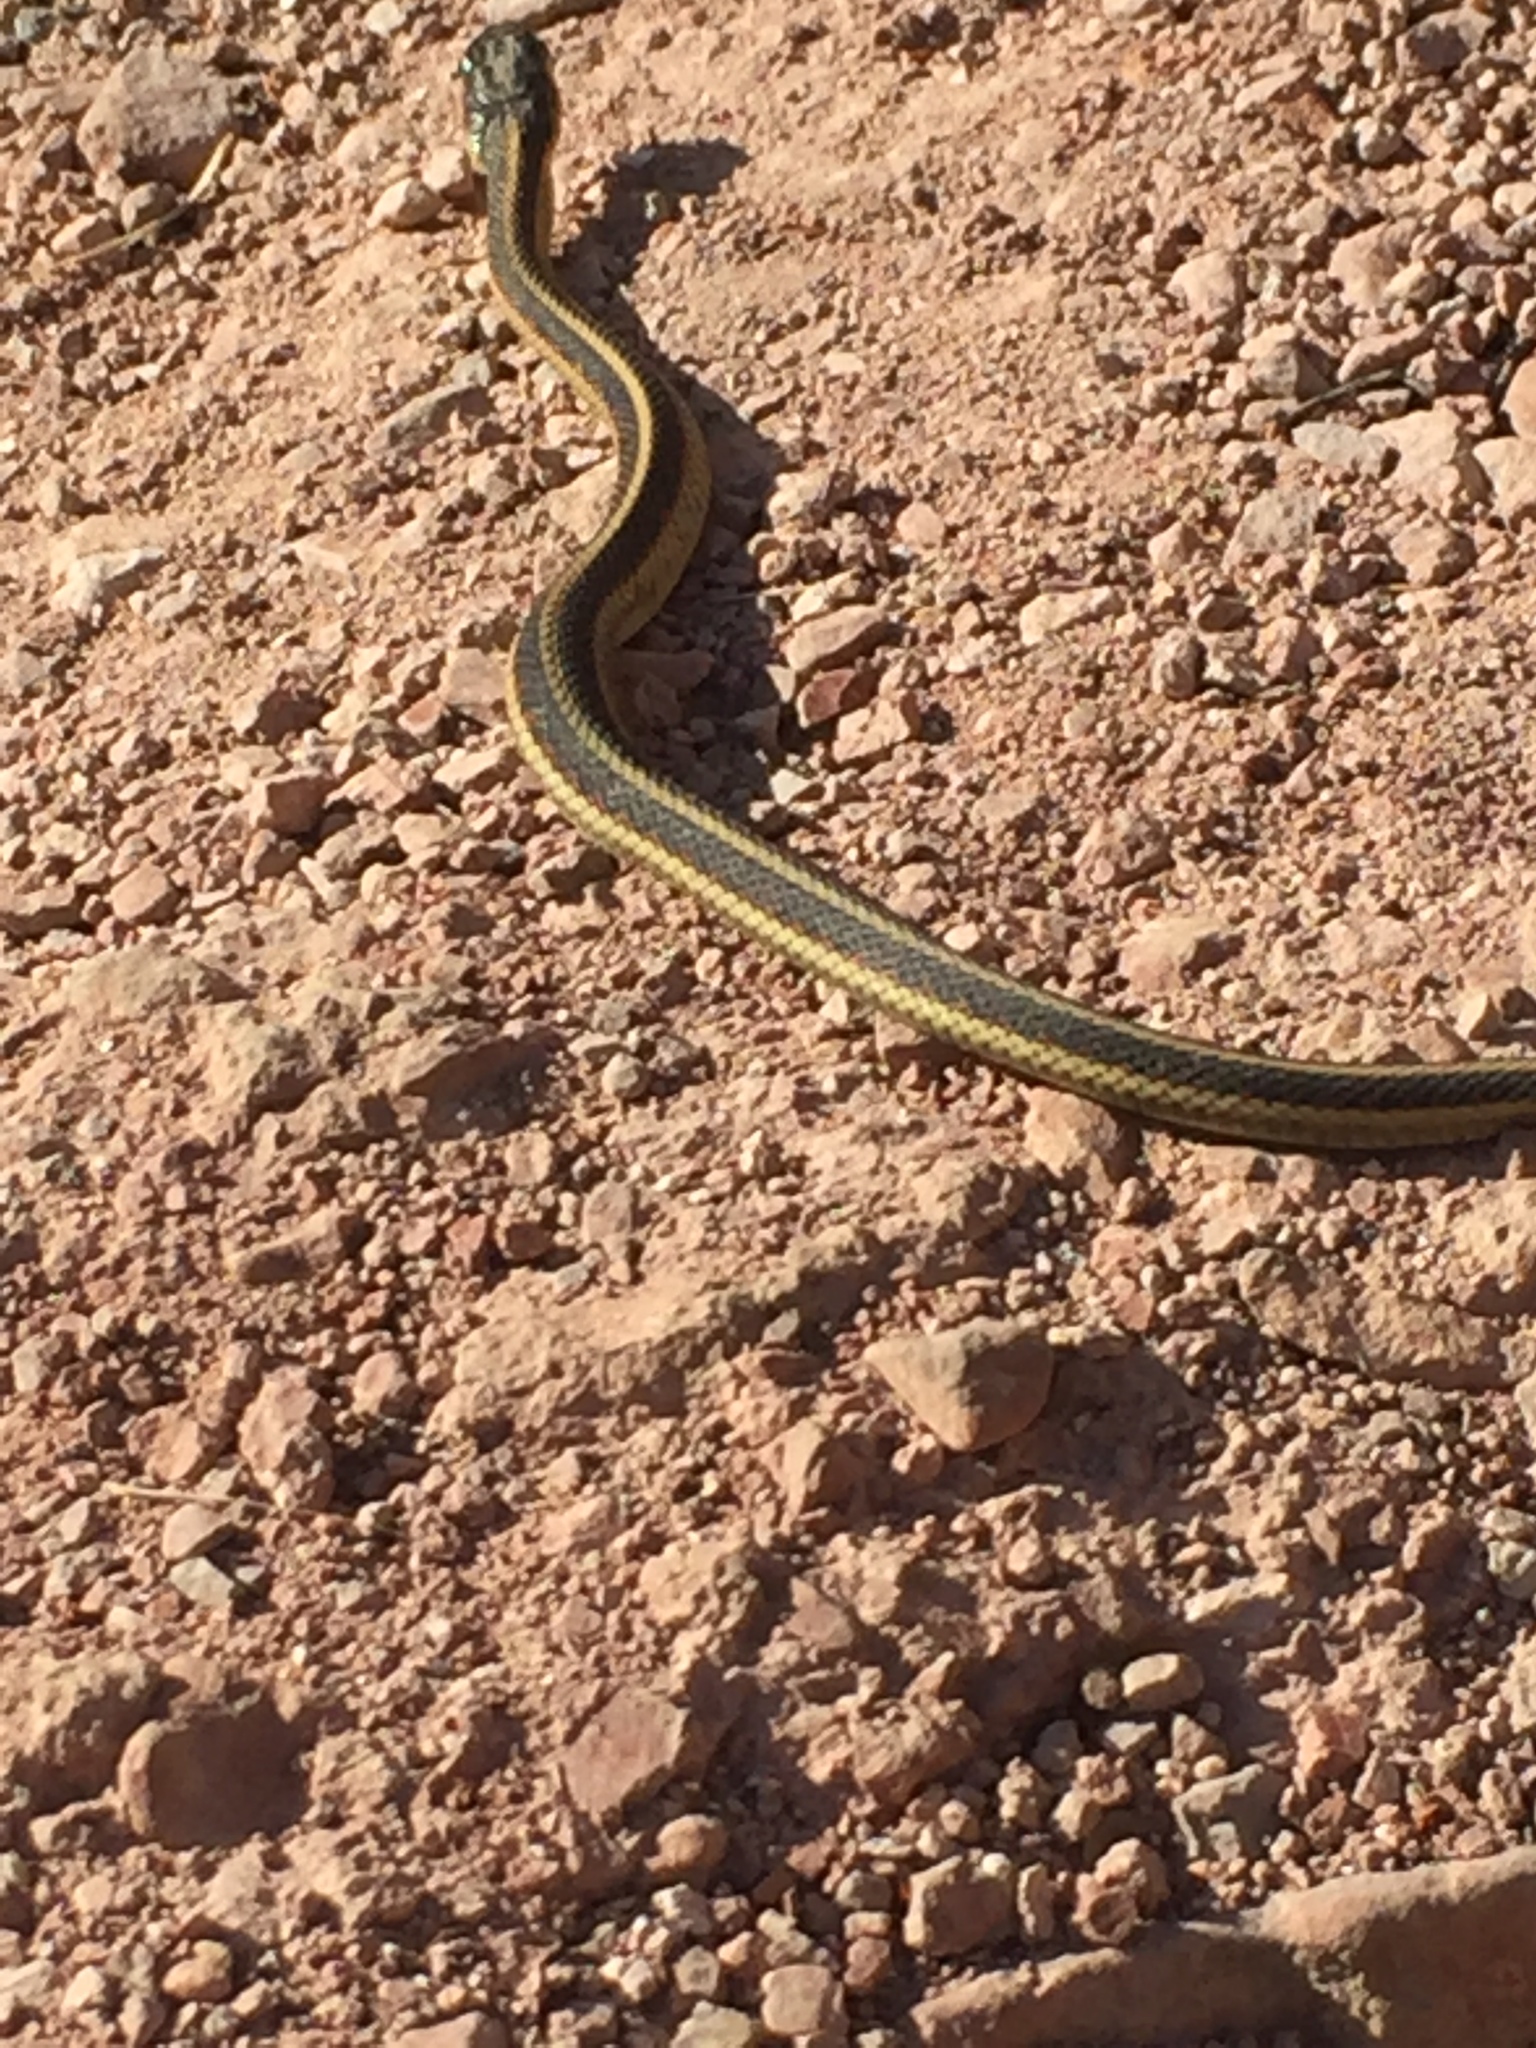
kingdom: Animalia
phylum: Chordata
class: Squamata
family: Colubridae
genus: Thamnophis
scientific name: Thamnophis sirtalis
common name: Common garter snake
